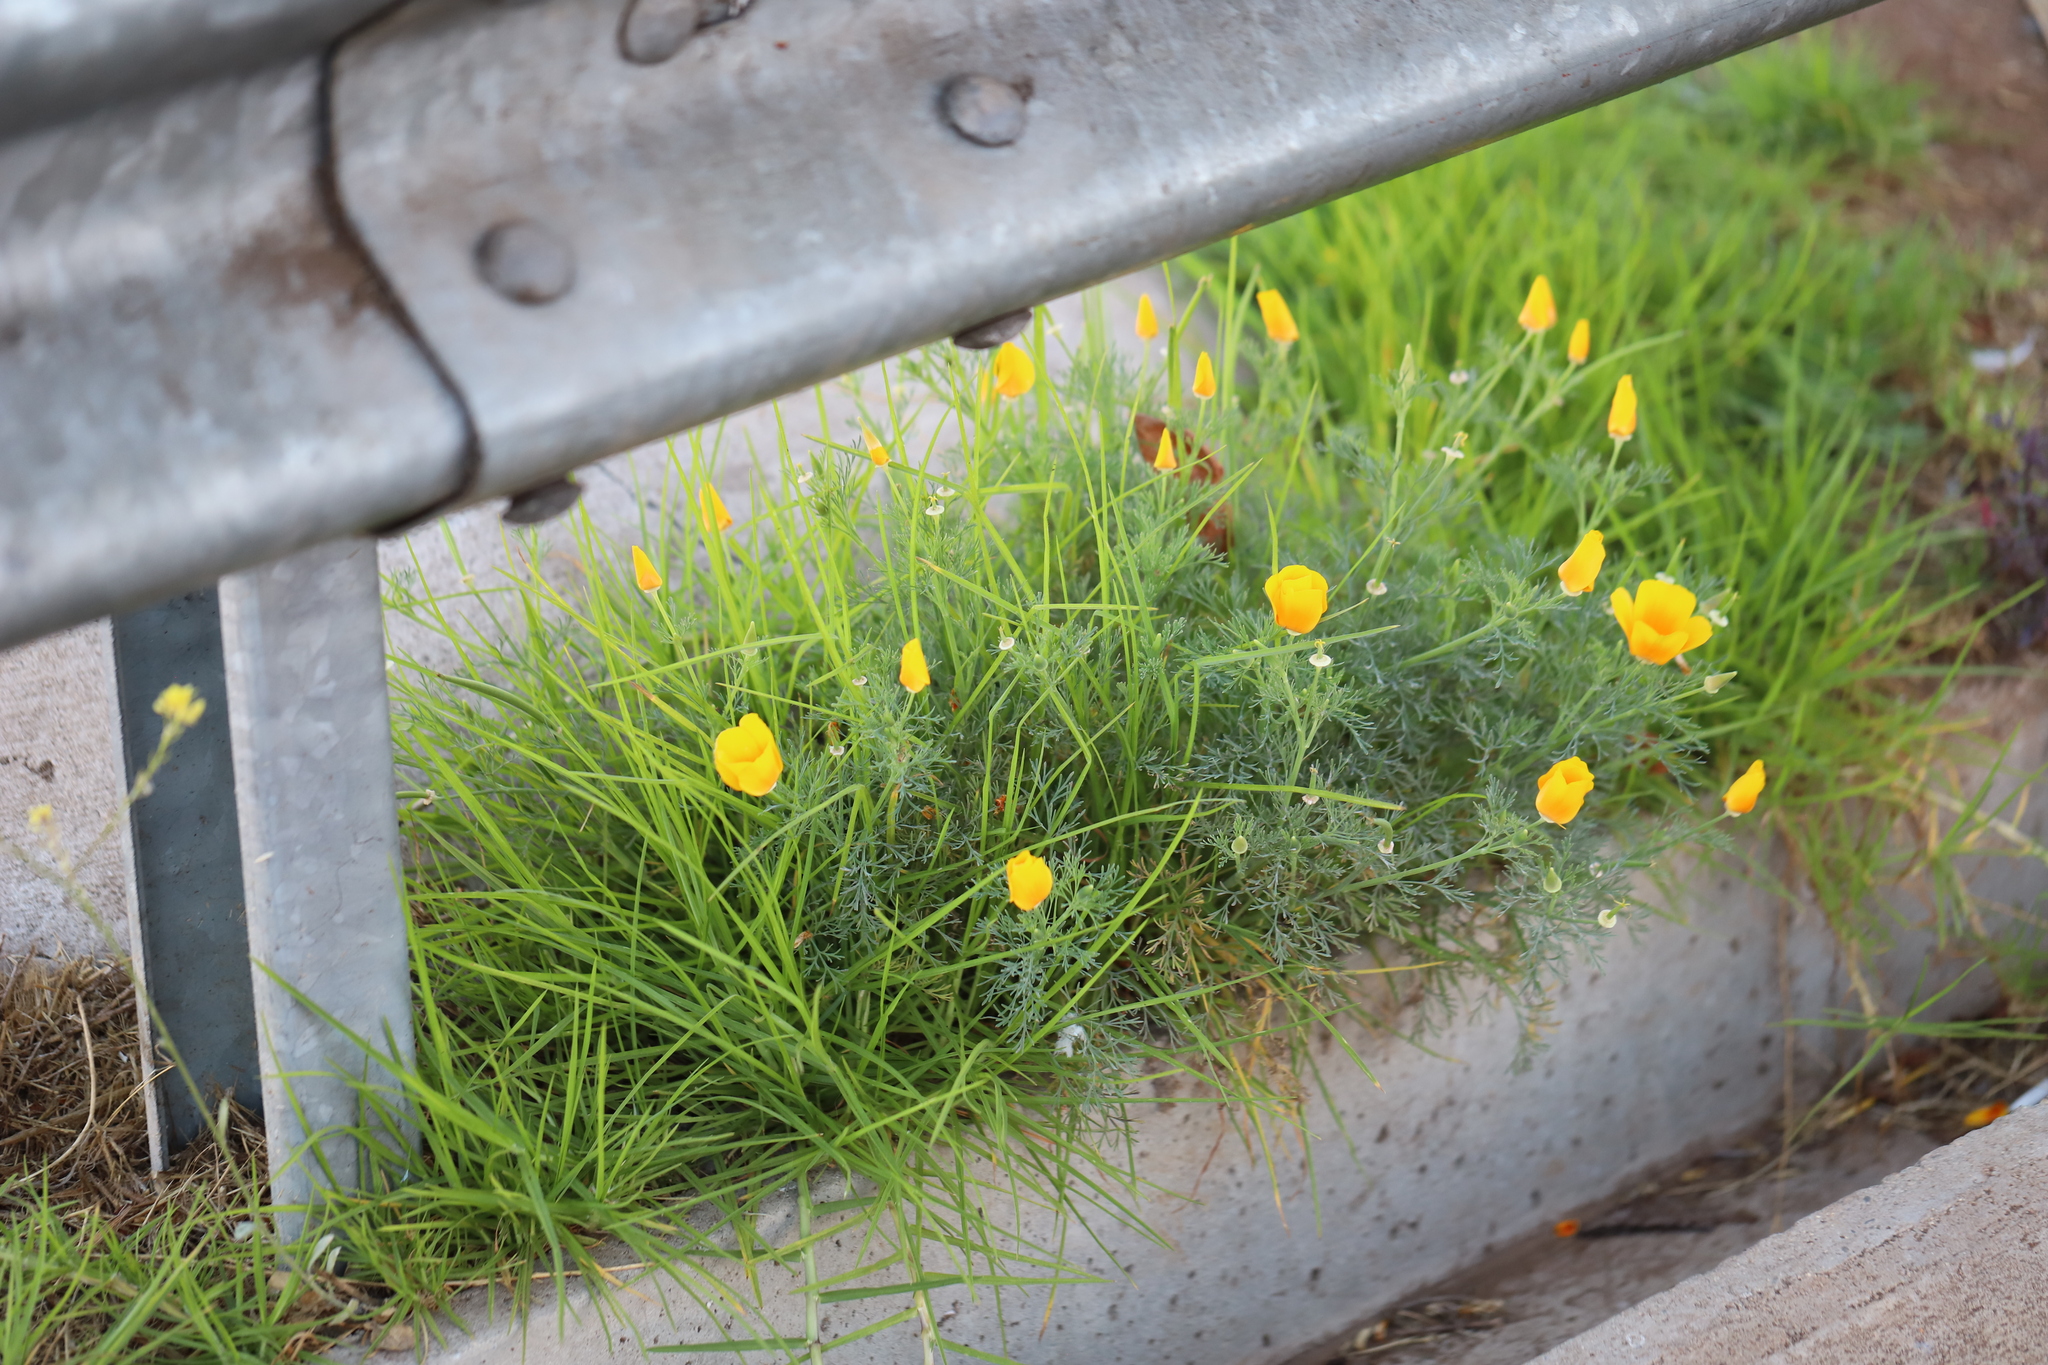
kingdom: Plantae
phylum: Tracheophyta
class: Magnoliopsida
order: Ranunculales
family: Papaveraceae
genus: Eschscholzia
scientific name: Eschscholzia californica
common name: California poppy
